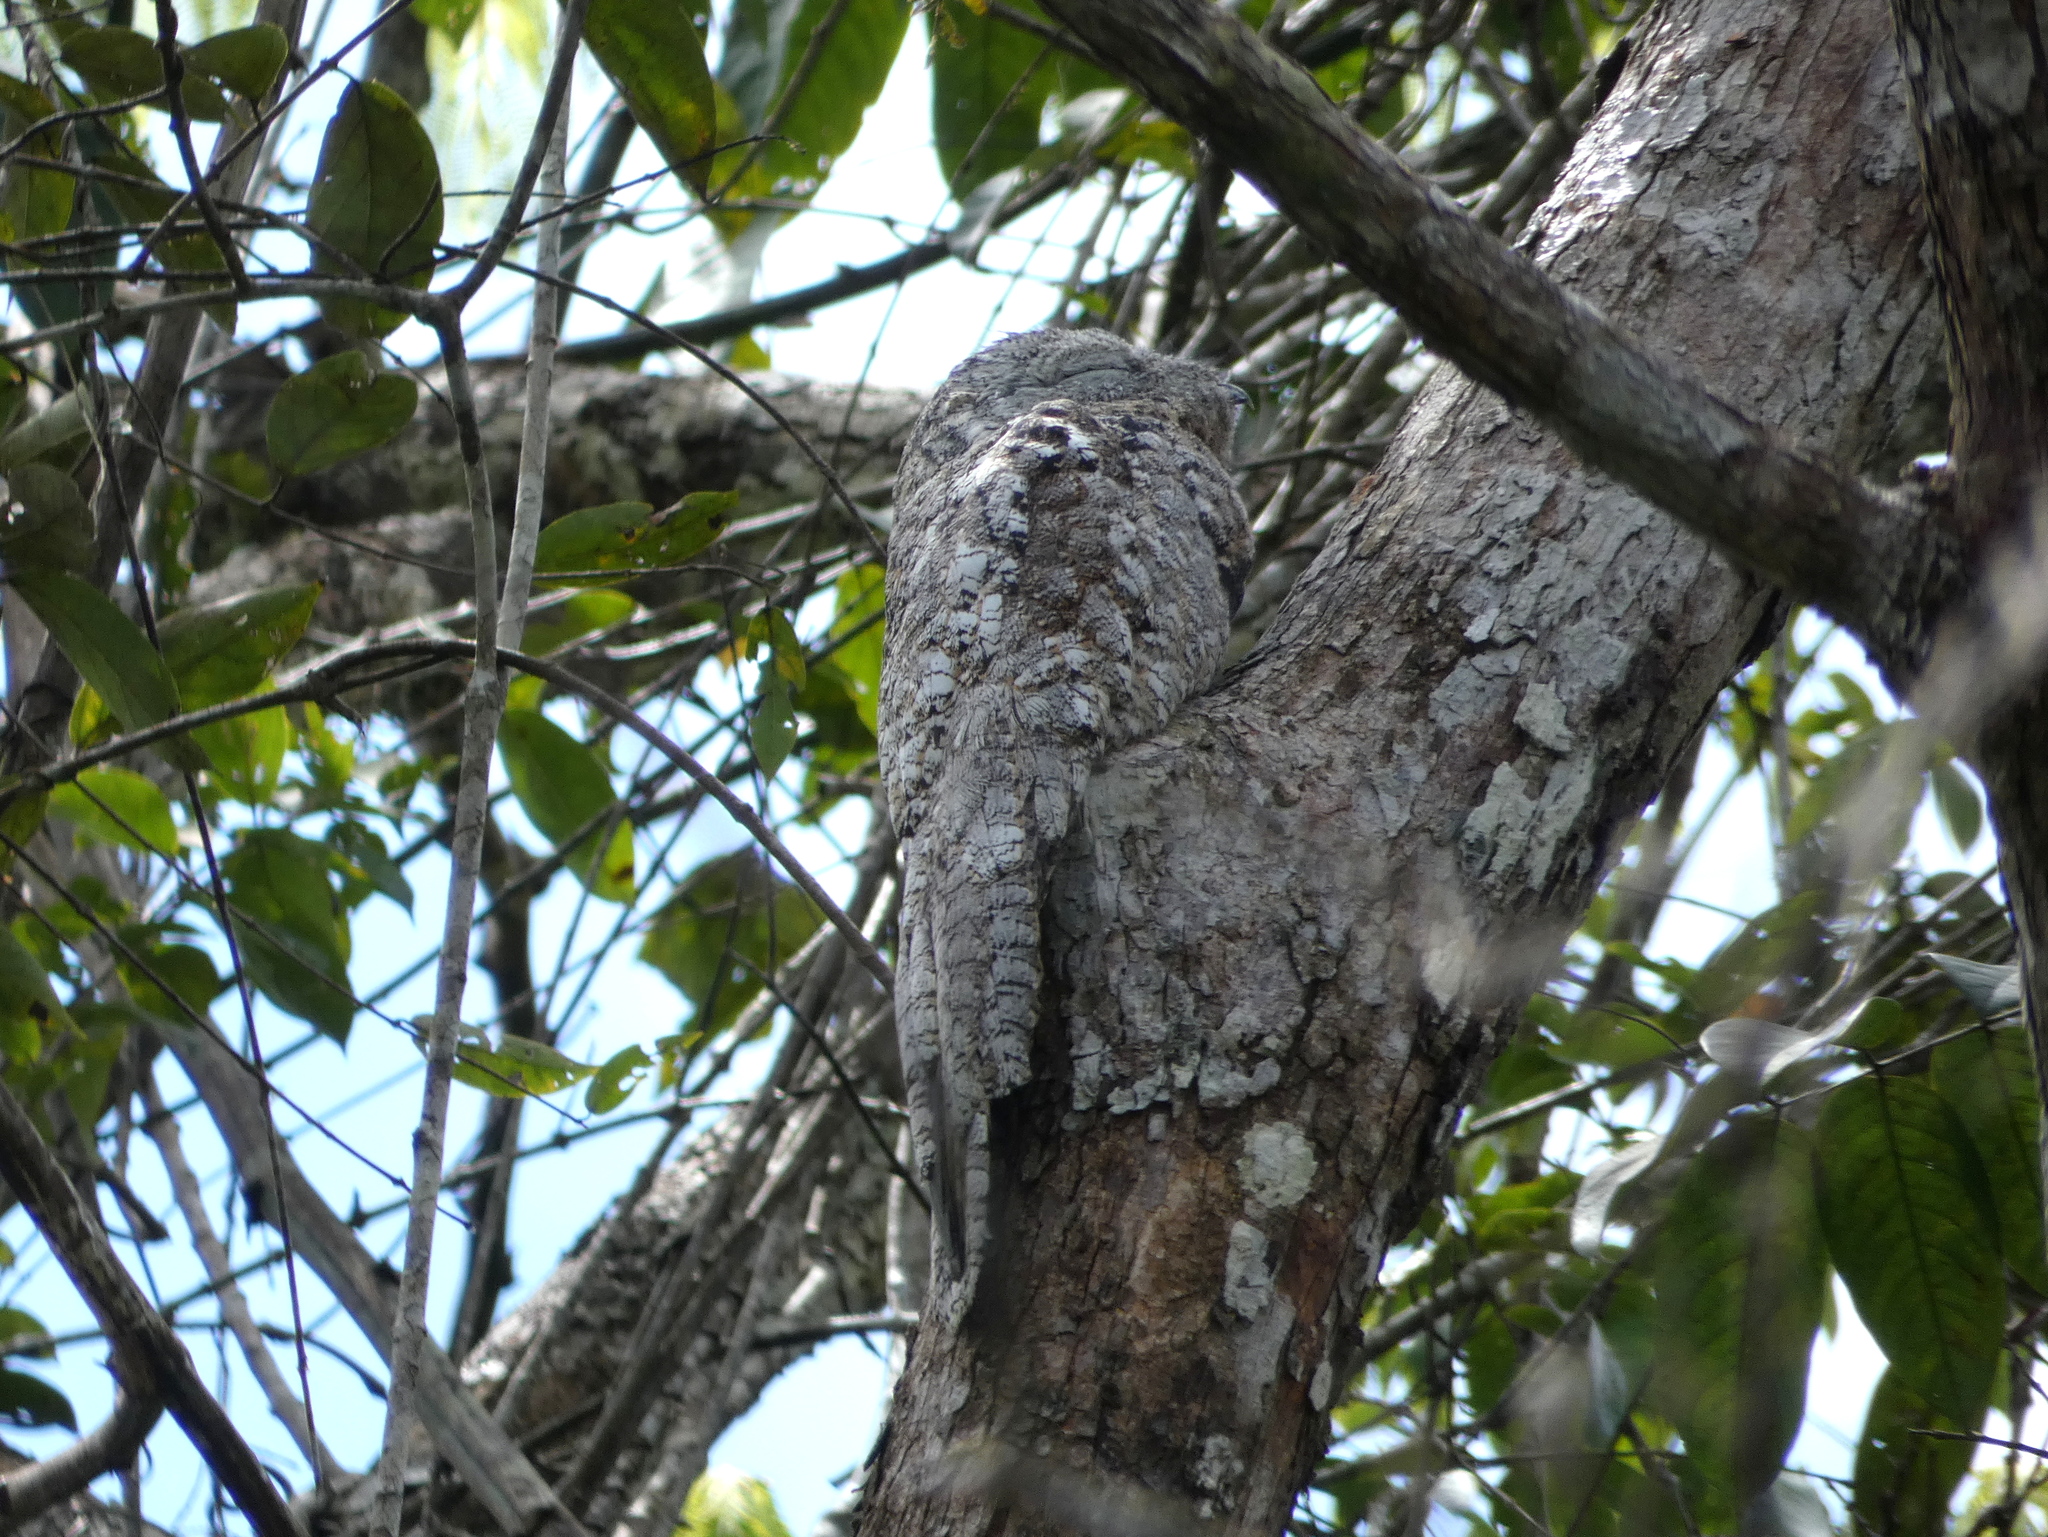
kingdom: Animalia
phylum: Chordata
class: Aves
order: Nyctibiiformes
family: Nyctibiidae
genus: Nyctibius
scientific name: Nyctibius grandis
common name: Great potoo
